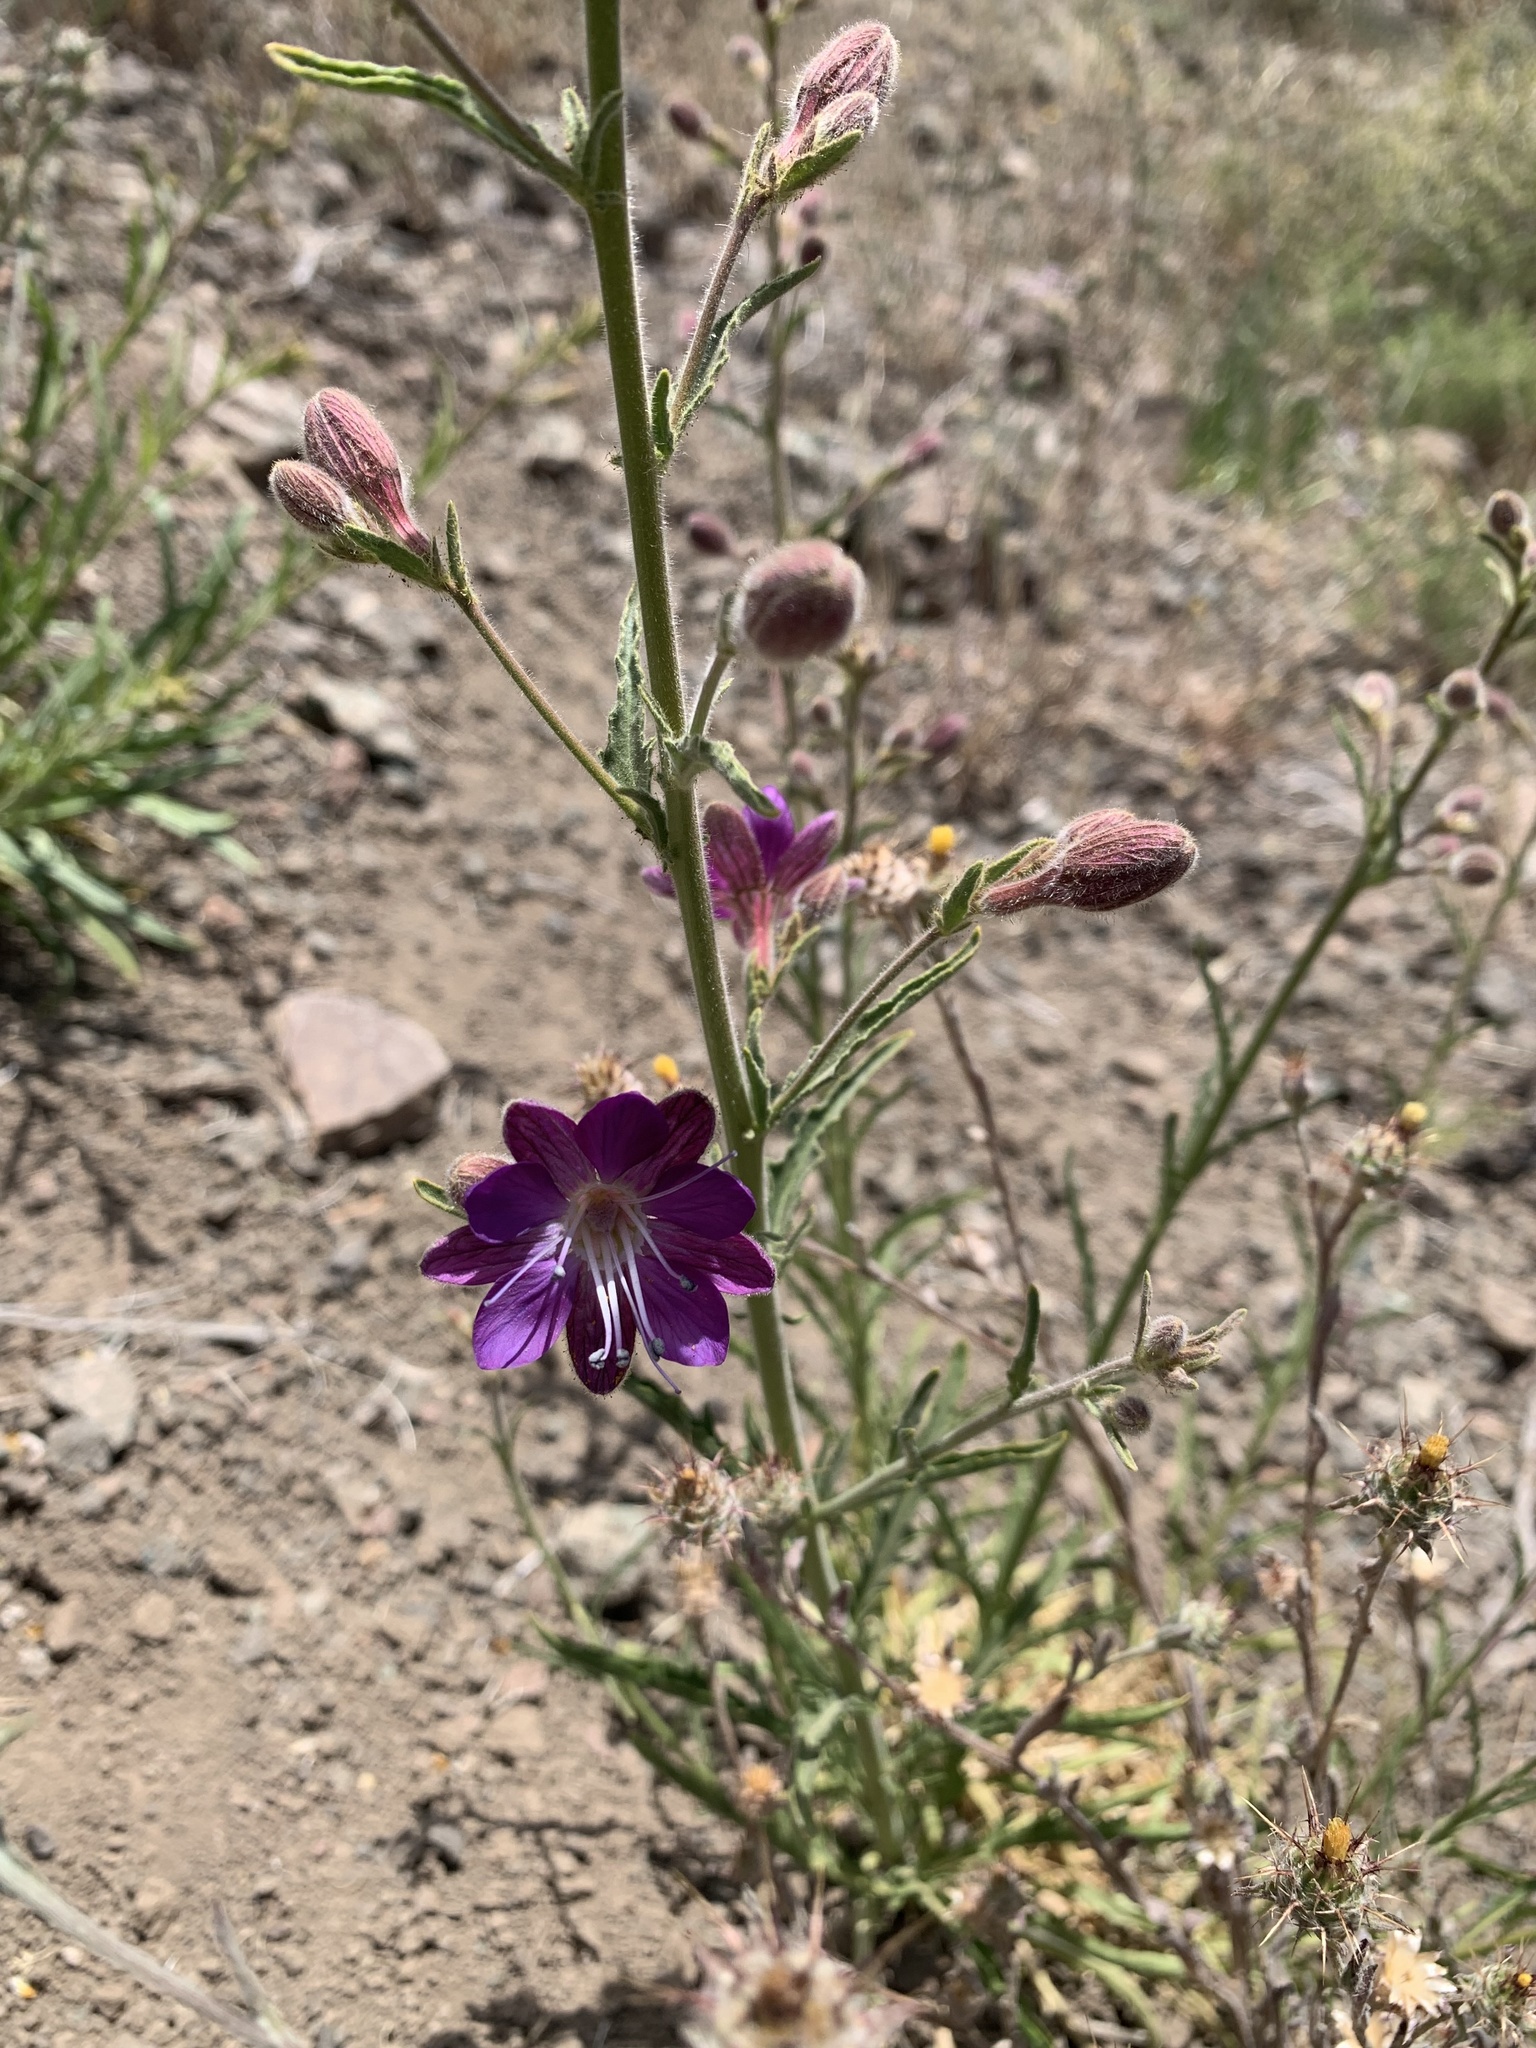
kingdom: Plantae
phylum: Tracheophyta
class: Magnoliopsida
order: Malpighiales
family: Malesherbiaceae
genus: Malesherbia
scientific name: Malesherbia linearifolia
